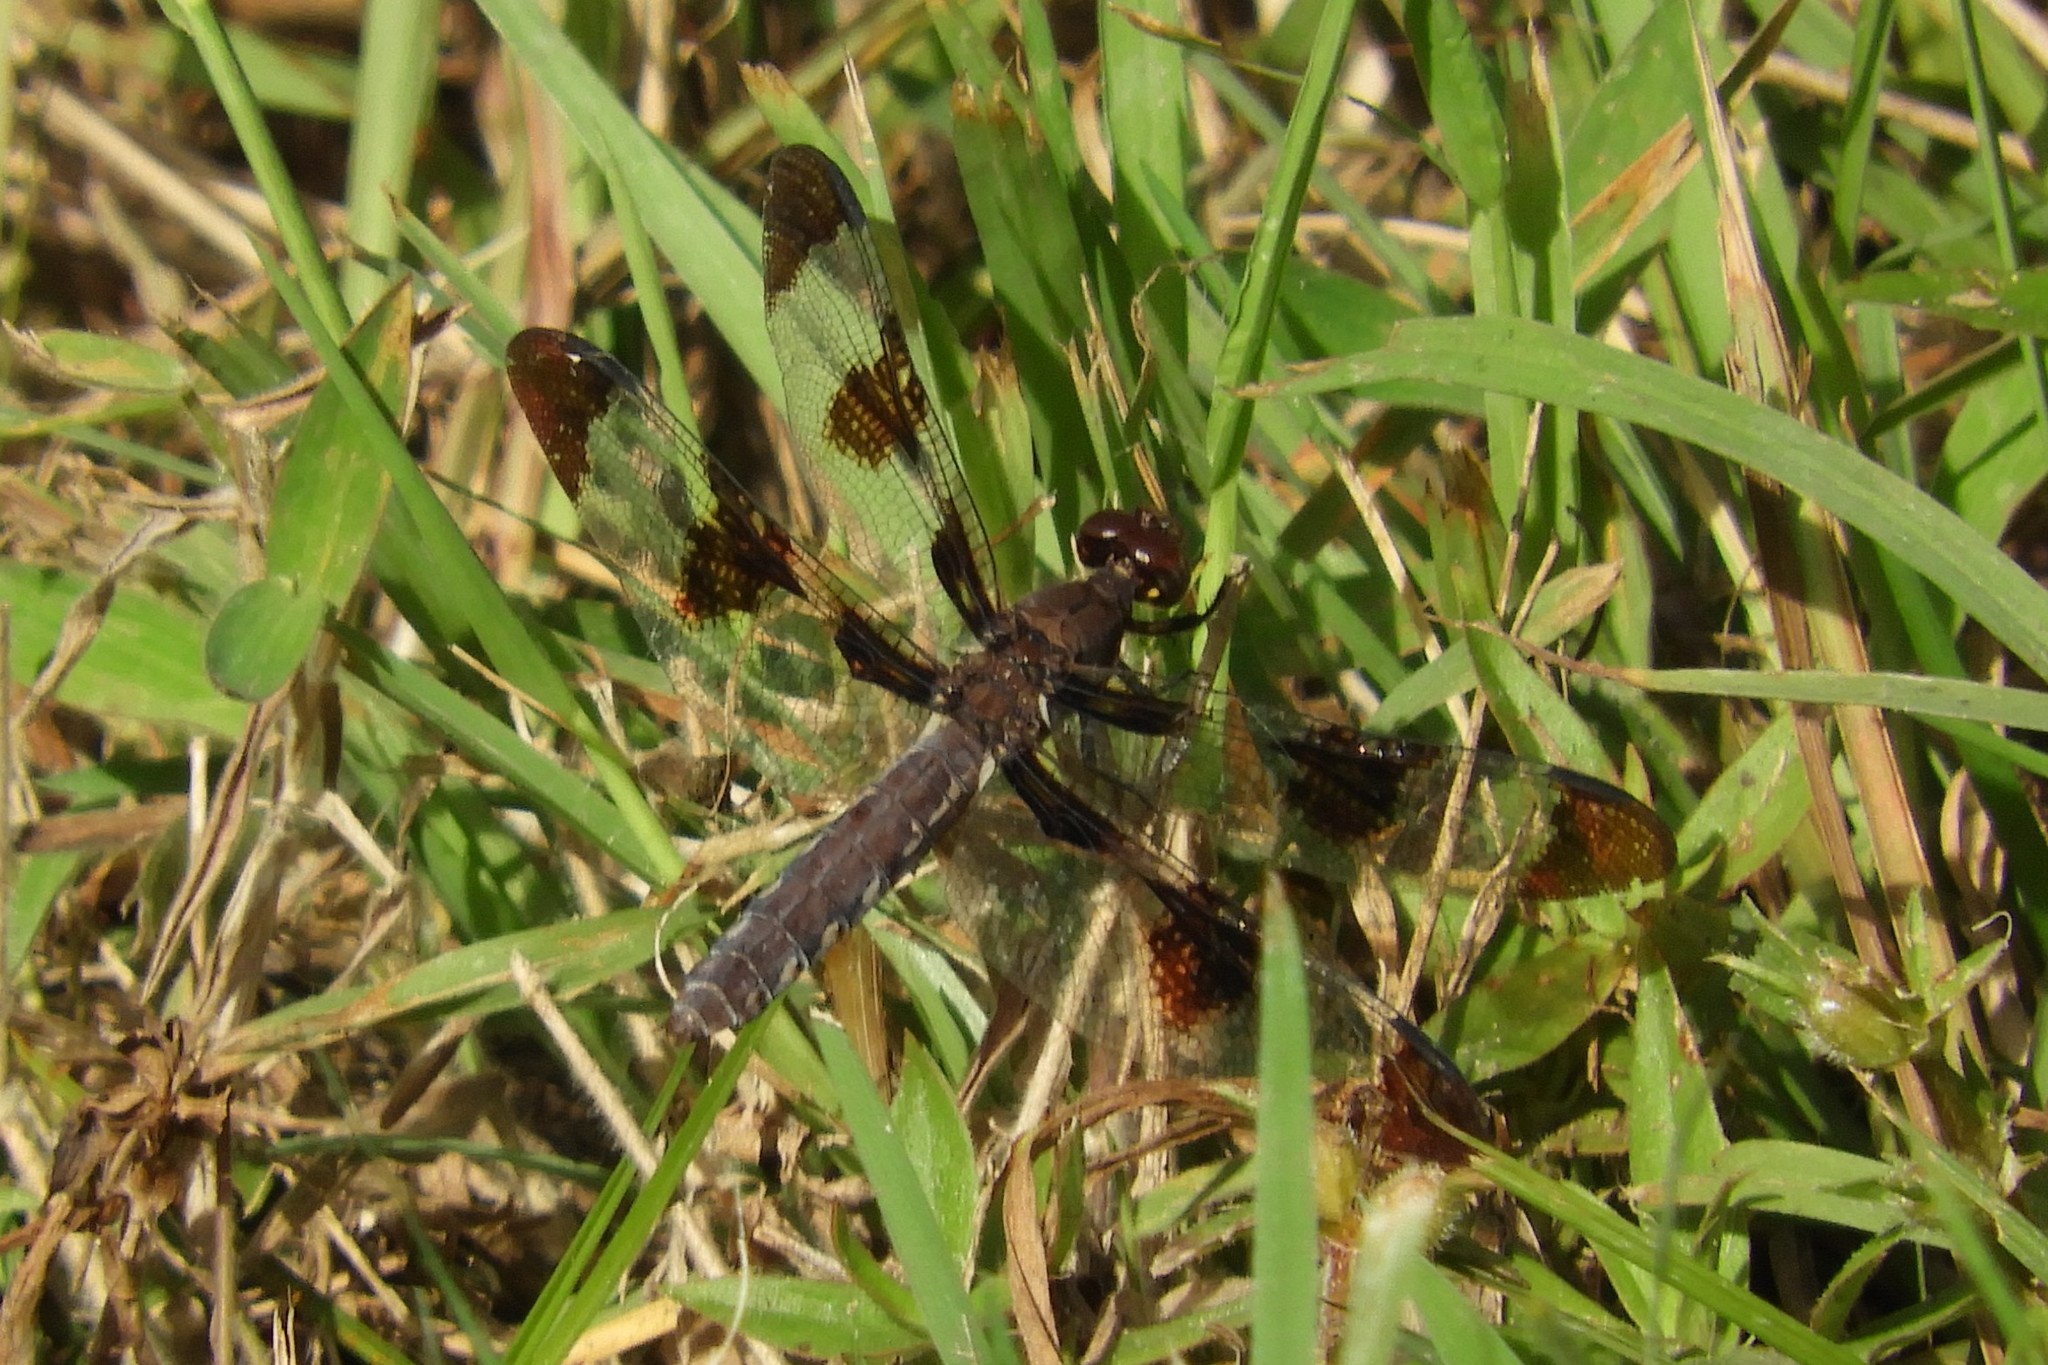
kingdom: Animalia
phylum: Arthropoda
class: Insecta
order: Odonata
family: Libellulidae
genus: Plathemis
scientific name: Plathemis lydia
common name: Common whitetail
